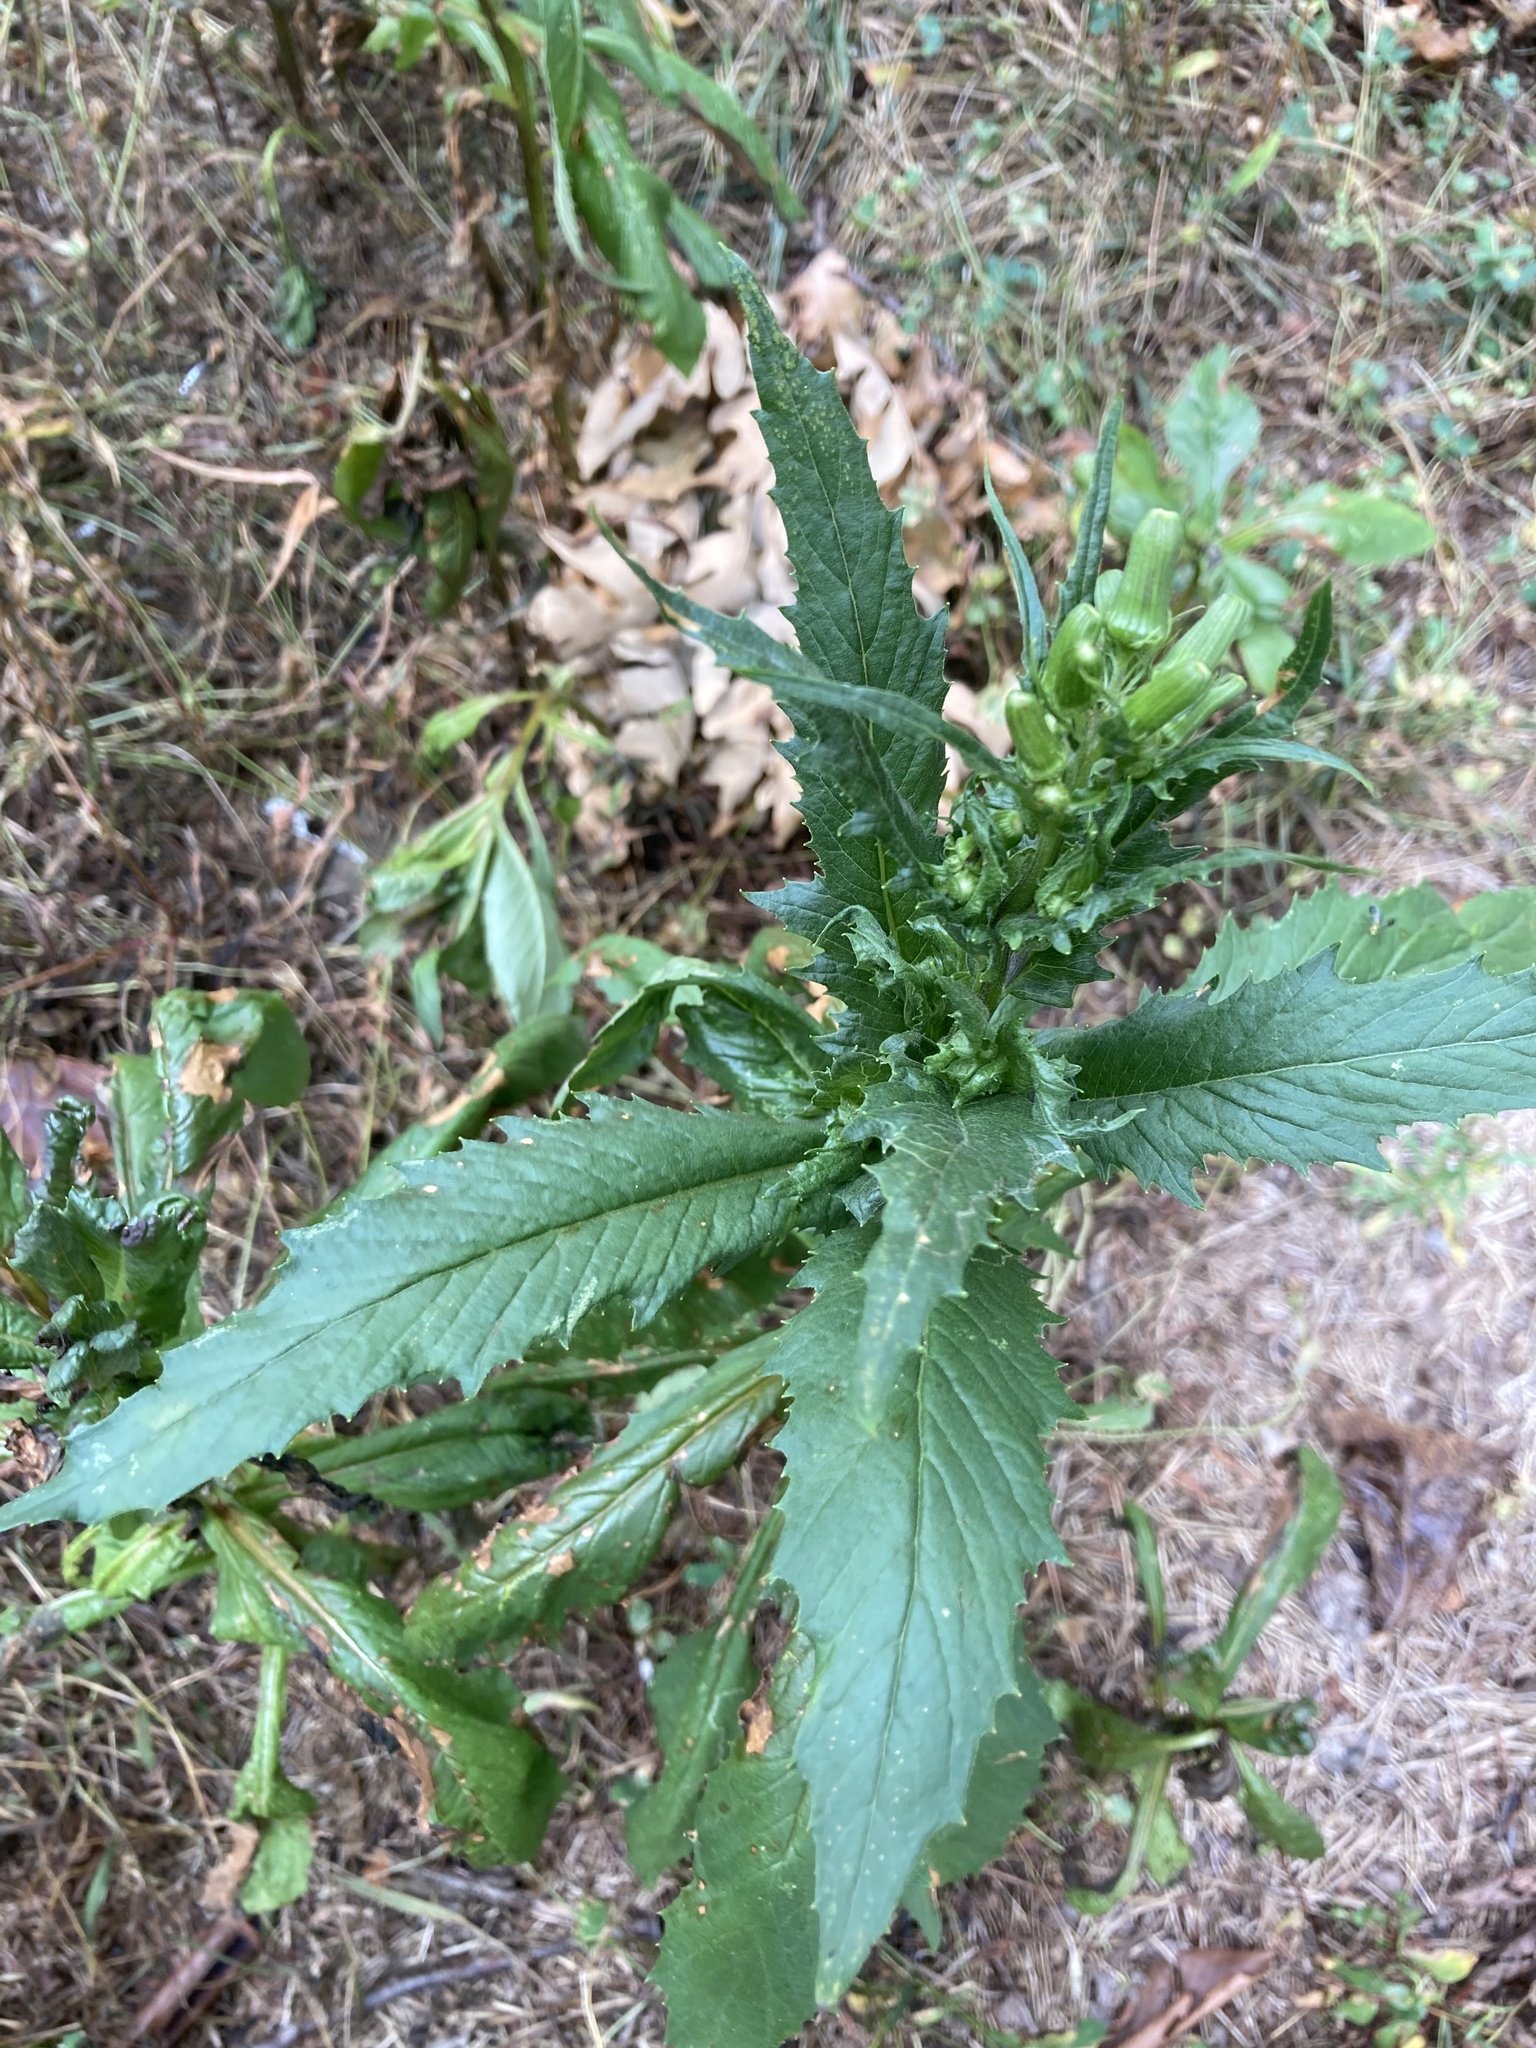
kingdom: Plantae
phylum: Tracheophyta
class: Magnoliopsida
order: Asterales
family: Asteraceae
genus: Erechtites
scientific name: Erechtites hieraciifolius
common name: American burnweed
